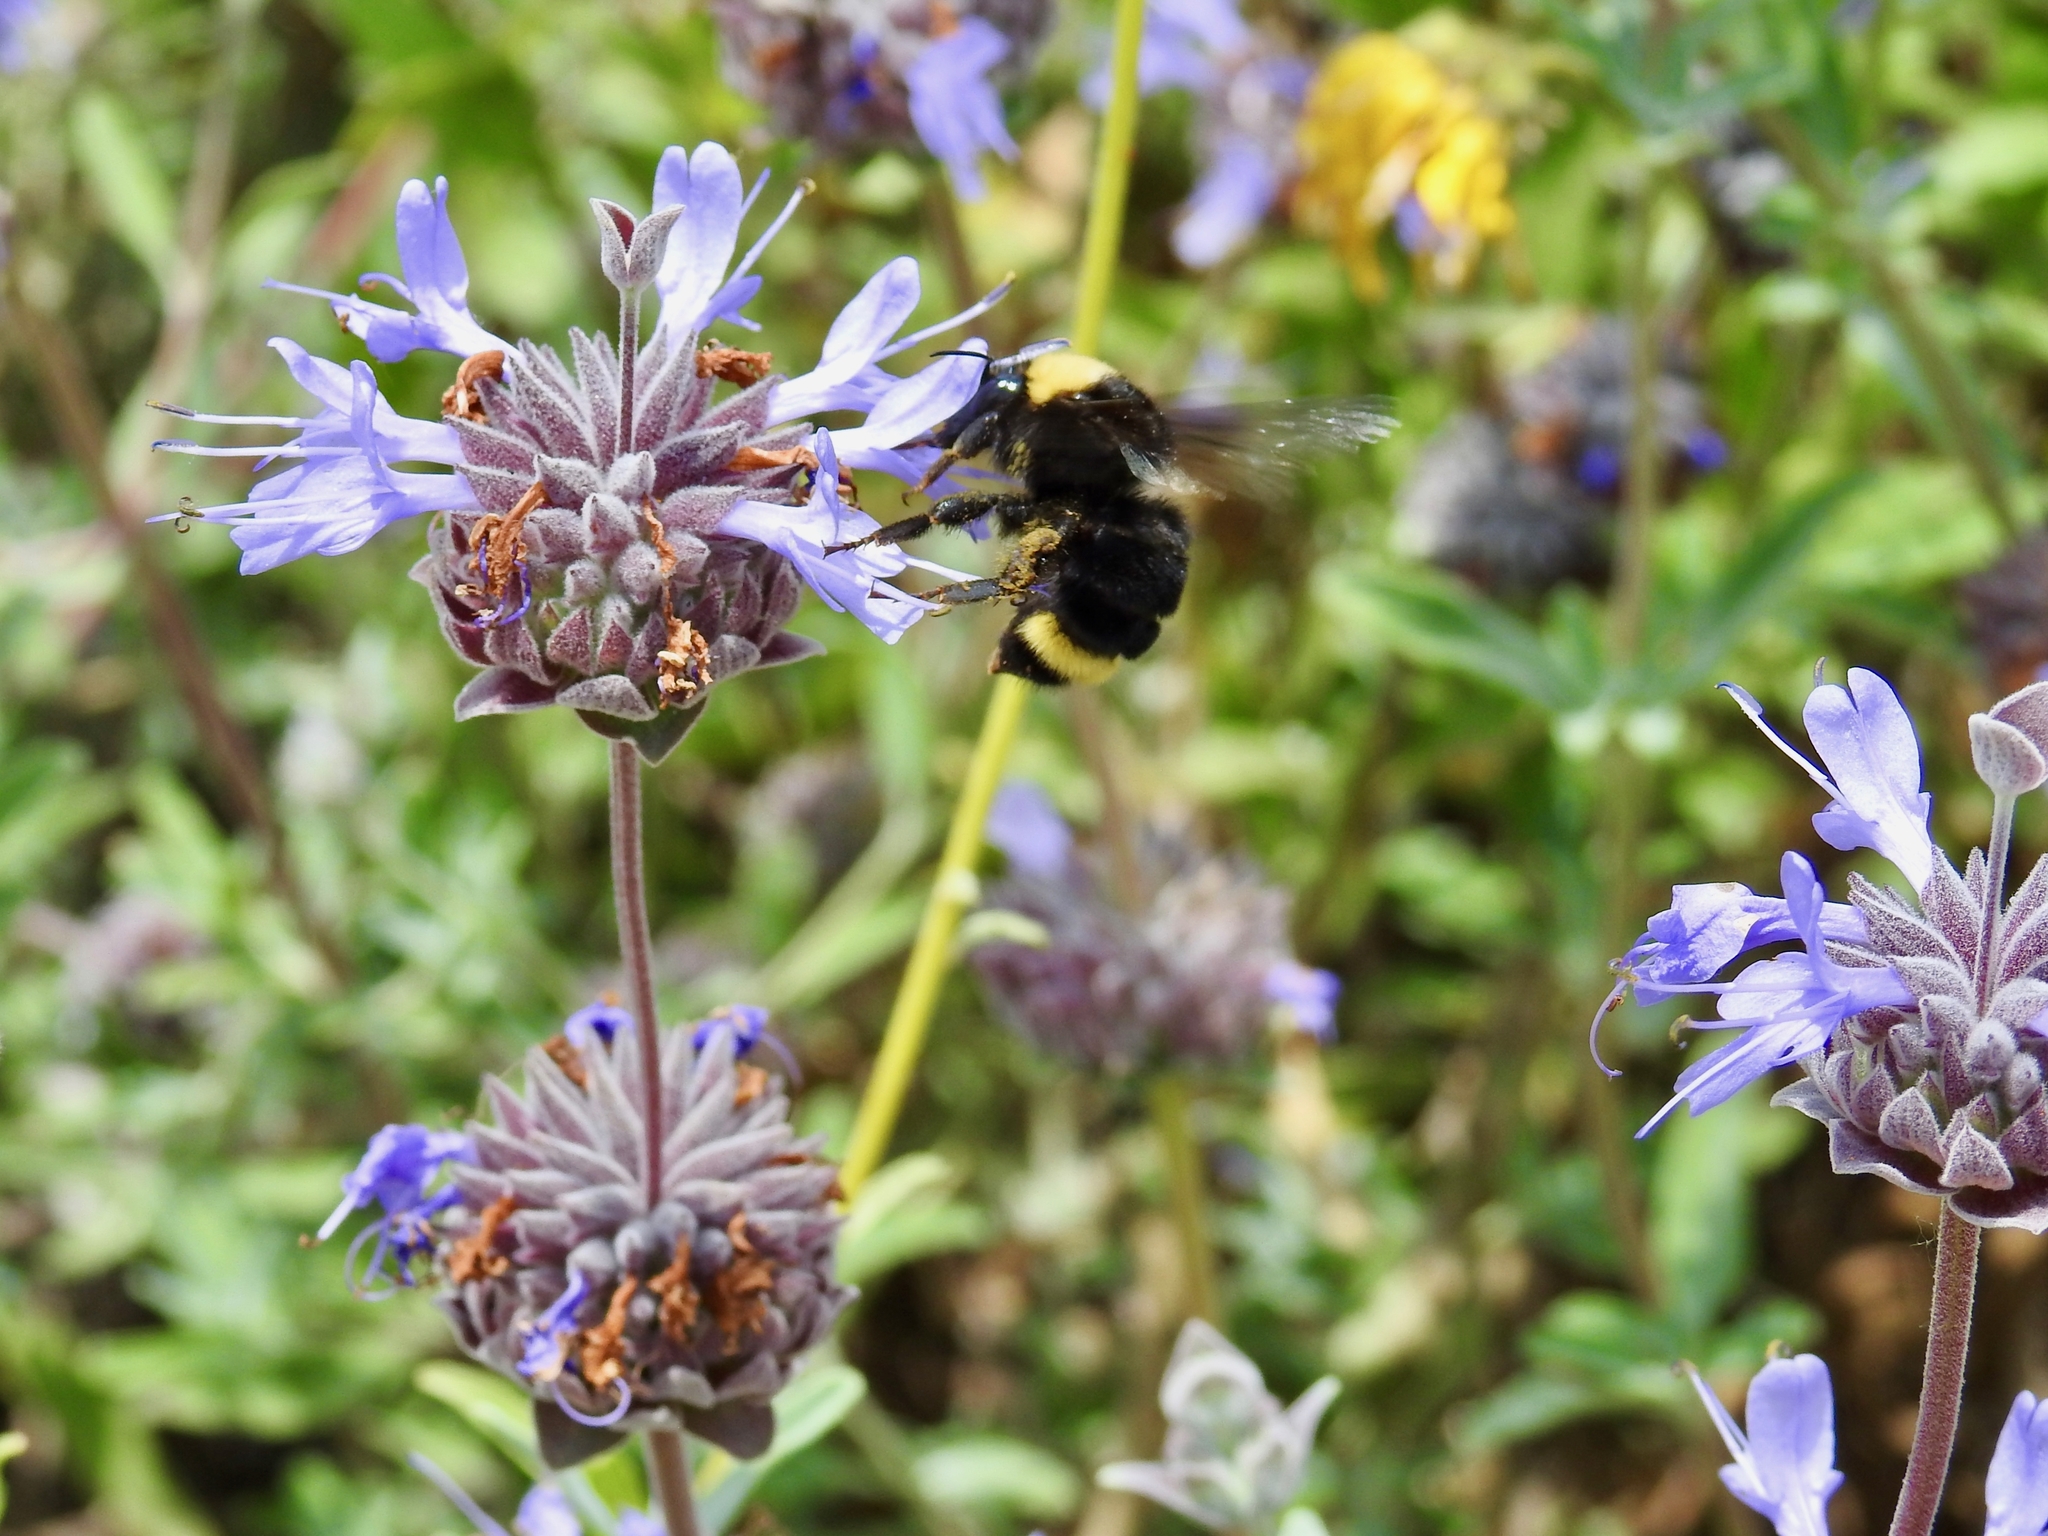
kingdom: Animalia
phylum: Arthropoda
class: Insecta
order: Hymenoptera
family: Apidae
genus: Bombus
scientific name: Bombus californicus
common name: California bumble bee
